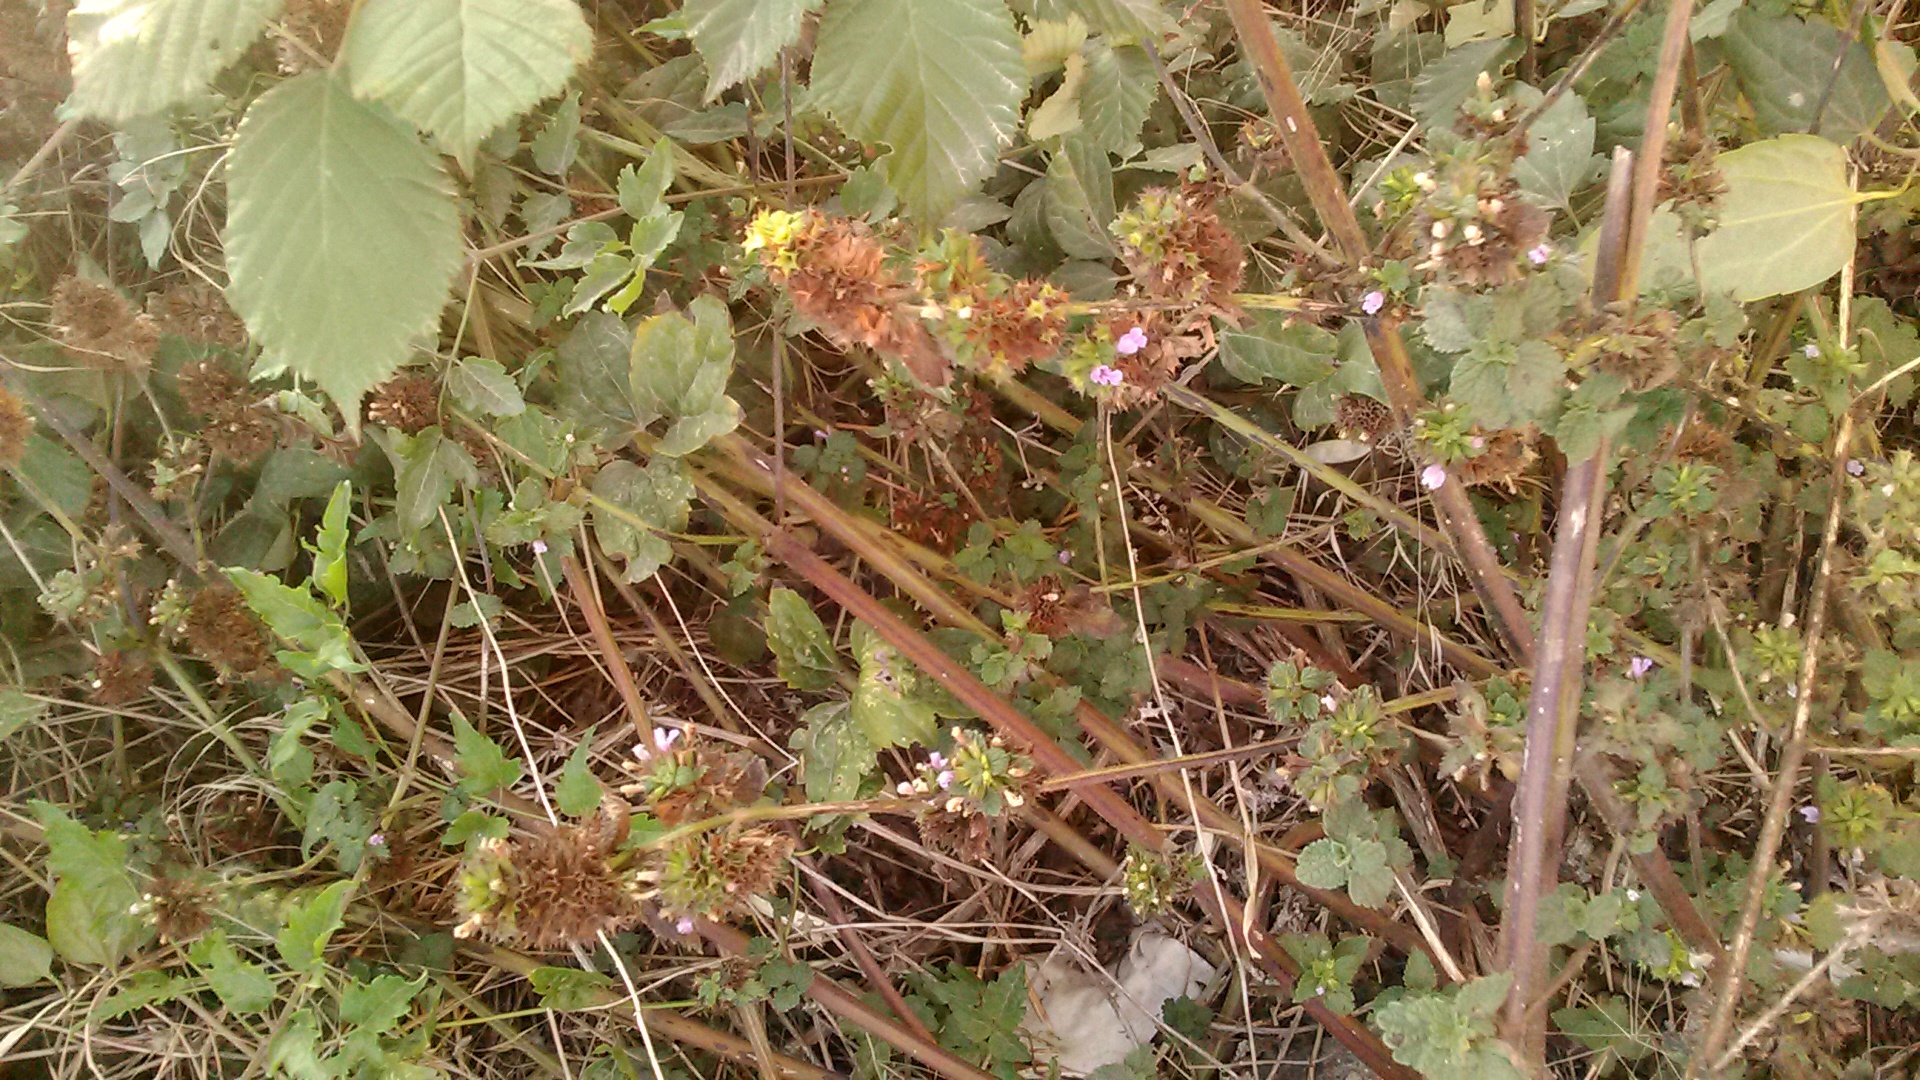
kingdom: Plantae
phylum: Tracheophyta
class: Magnoliopsida
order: Lamiales
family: Lamiaceae
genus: Ballota
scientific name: Ballota nigra
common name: Black horehound
